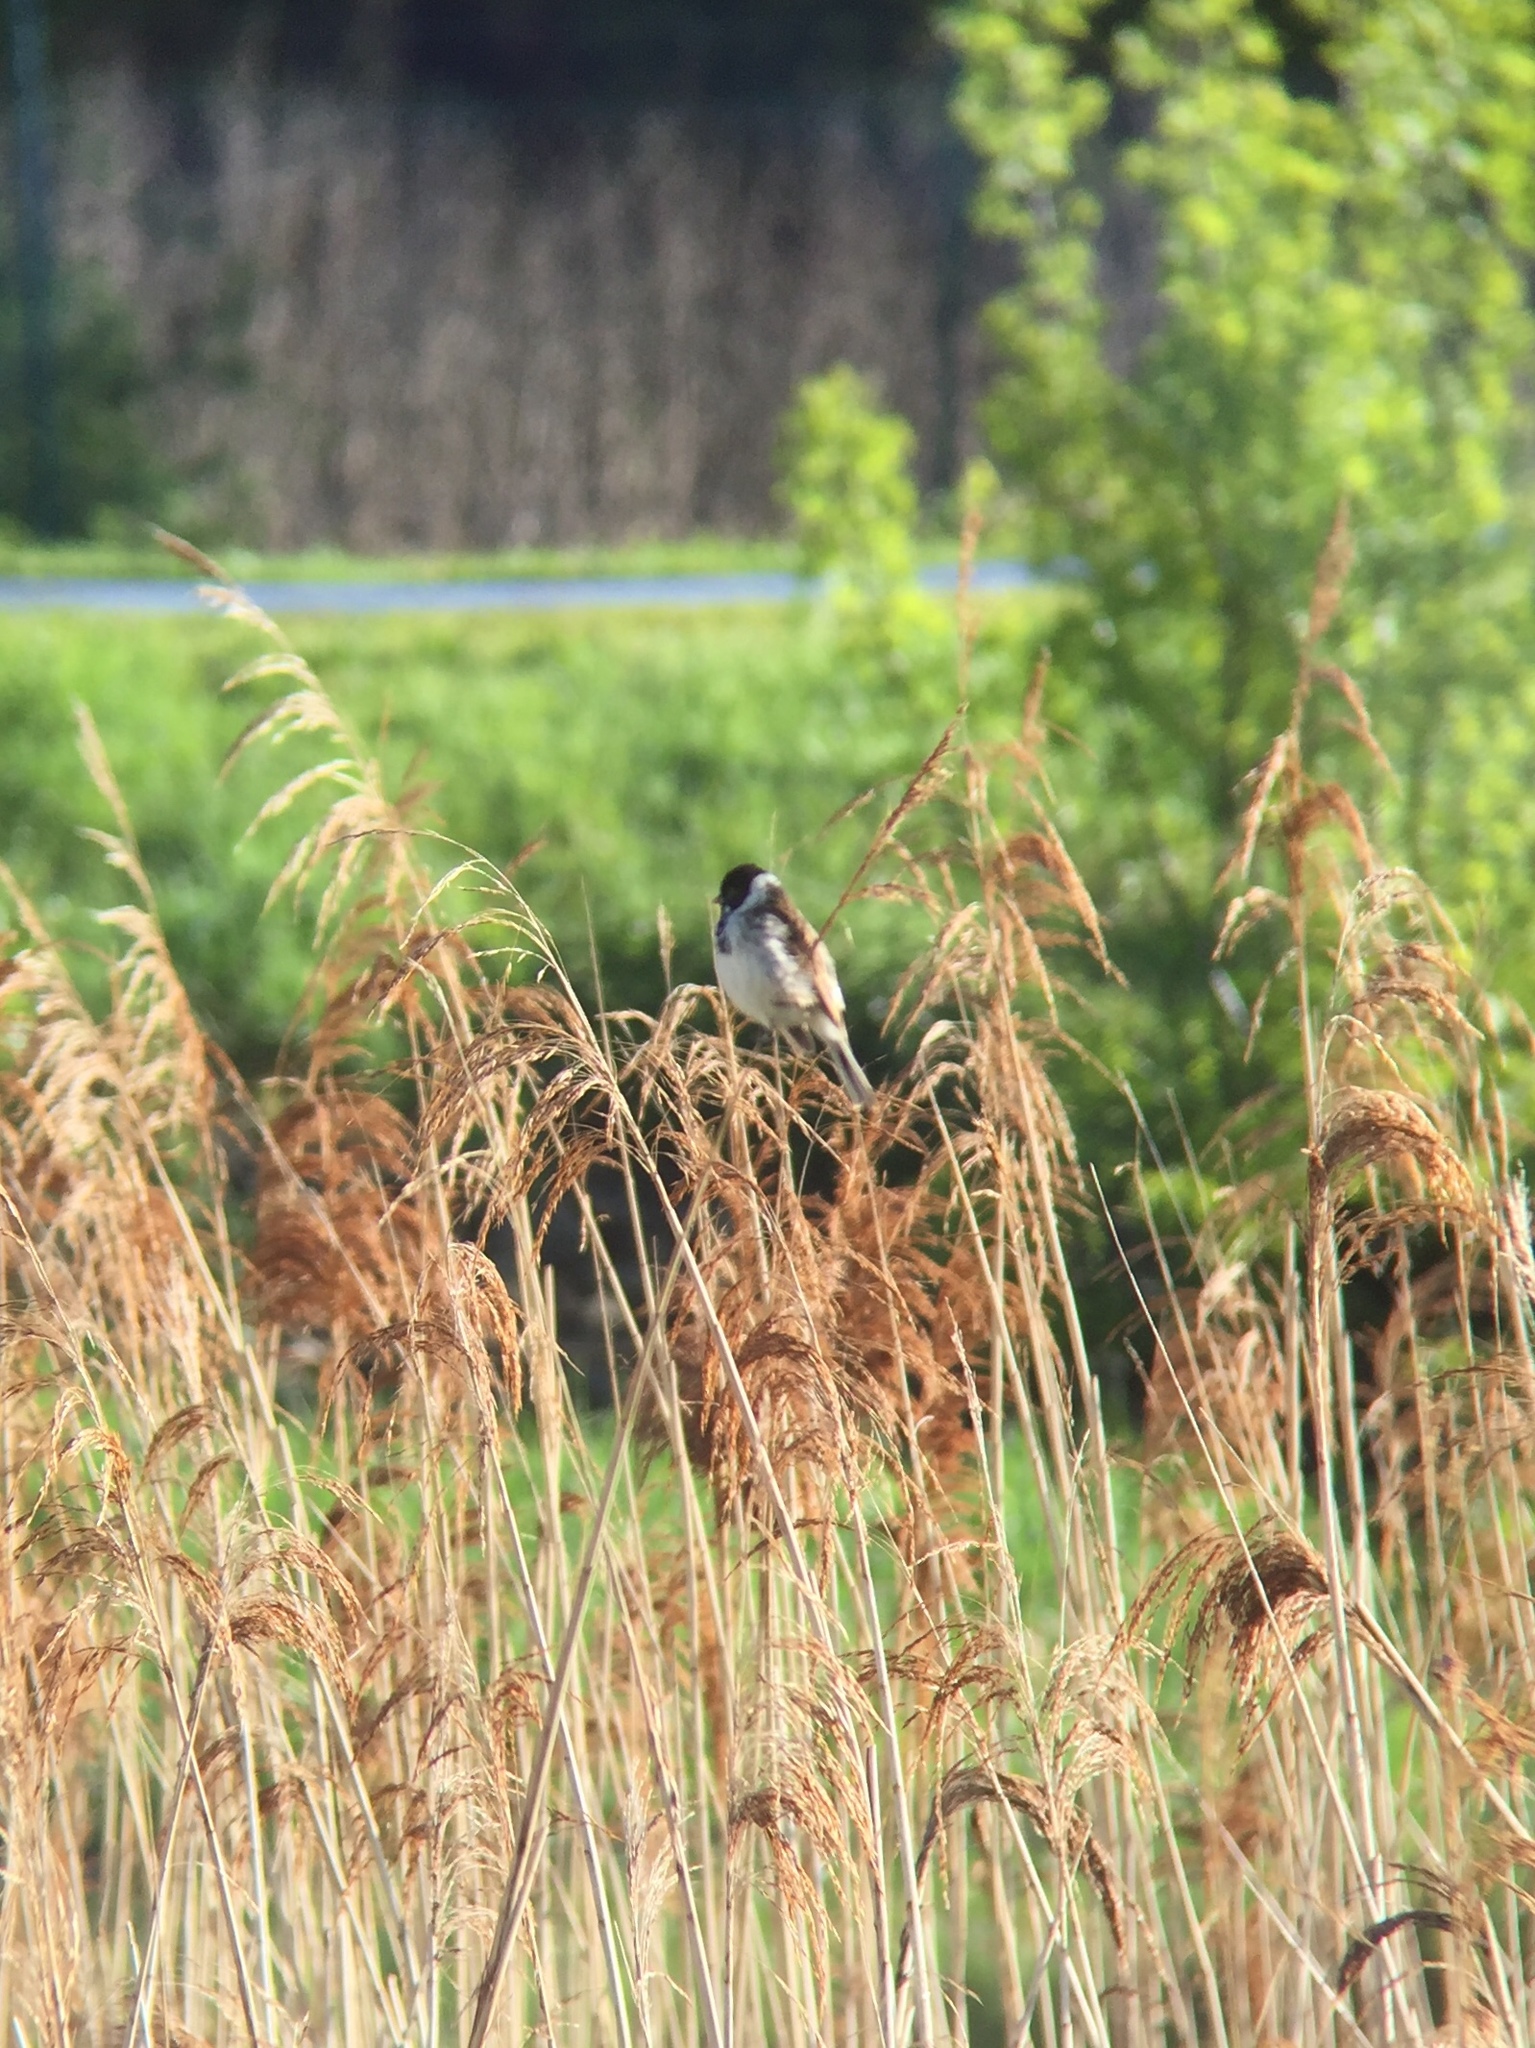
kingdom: Animalia
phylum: Chordata
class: Aves
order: Passeriformes
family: Emberizidae
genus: Emberiza
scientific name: Emberiza schoeniclus
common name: Reed bunting
